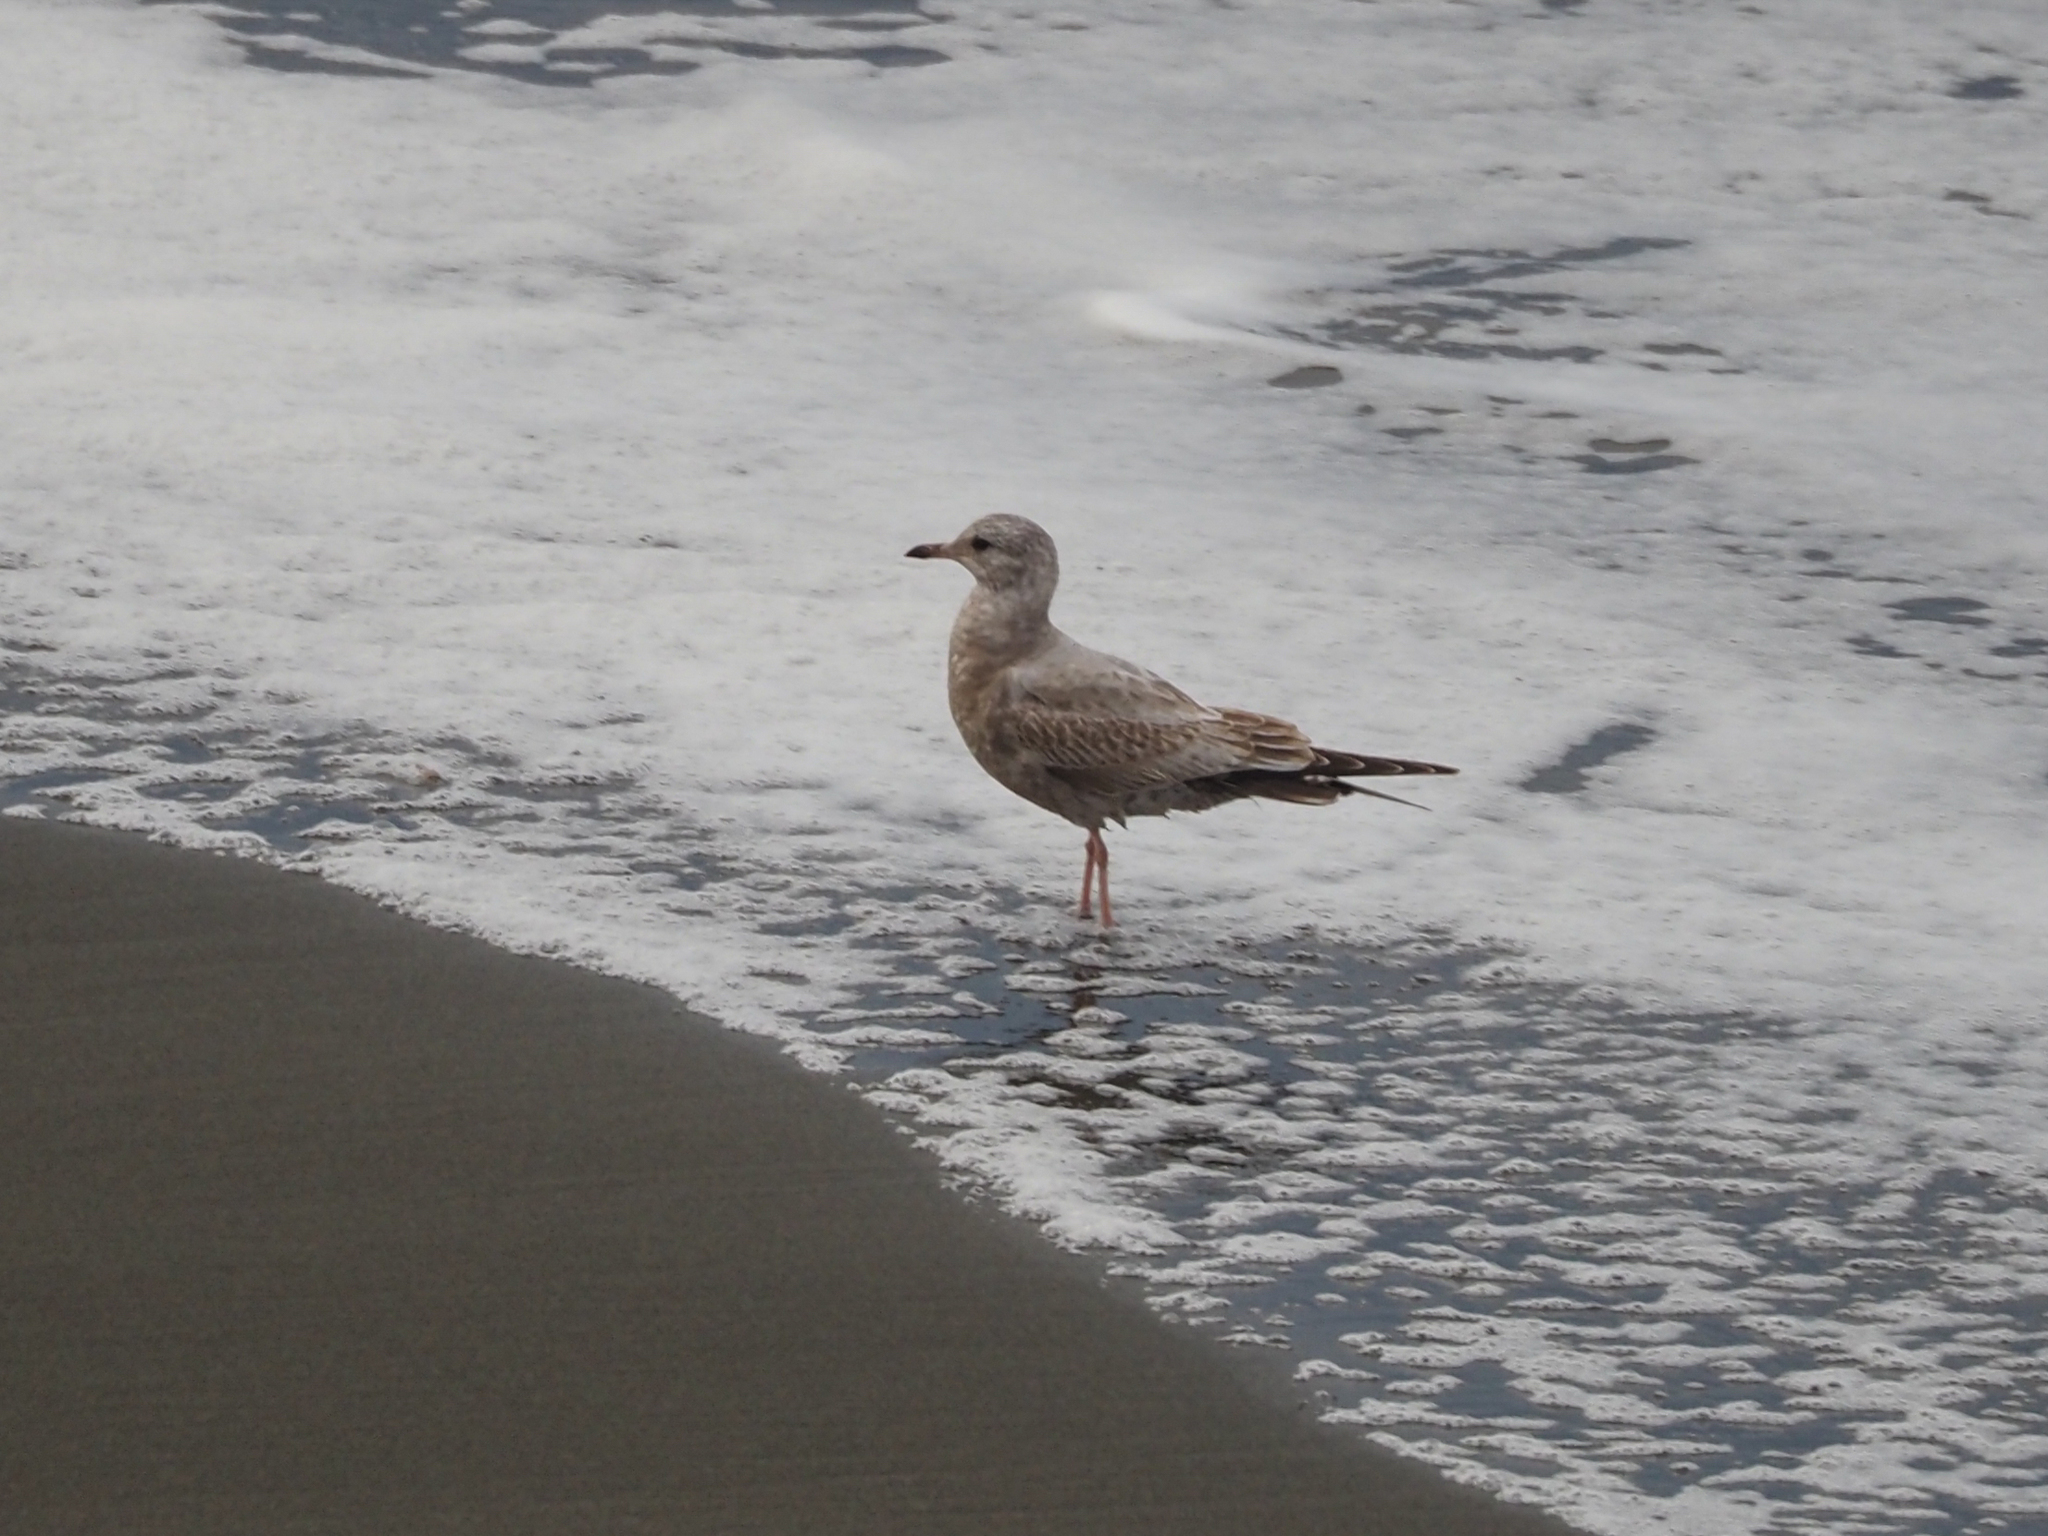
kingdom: Animalia
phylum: Chordata
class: Aves
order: Charadriiformes
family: Laridae
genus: Larus
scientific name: Larus brachyrhynchus
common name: Short-billed gull
